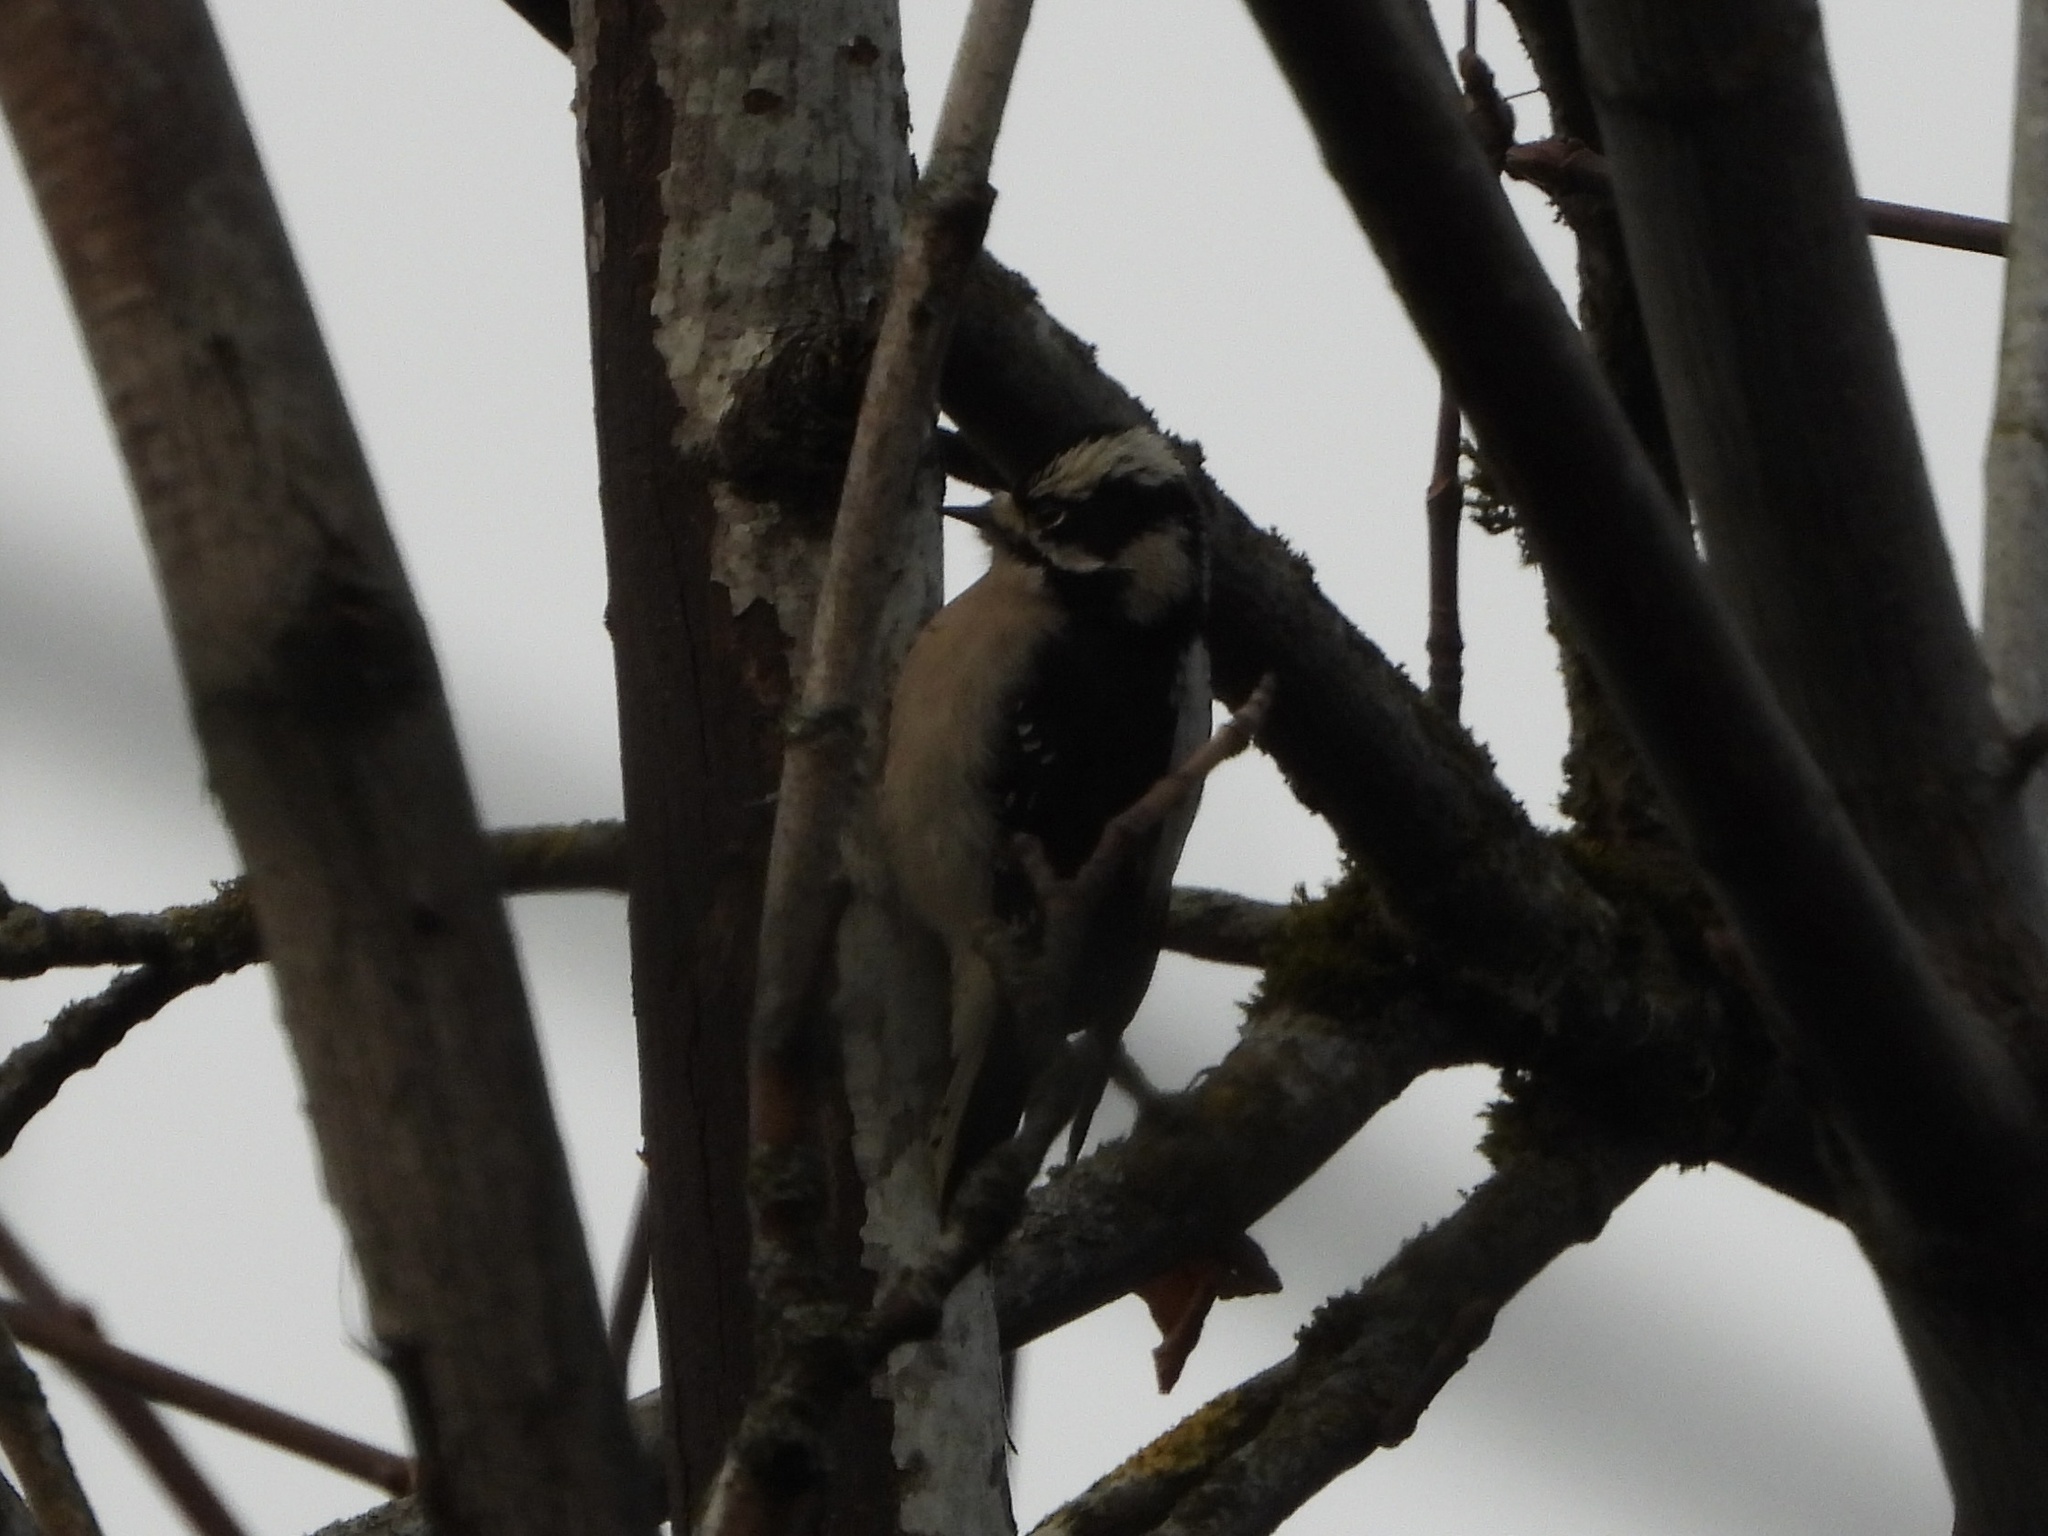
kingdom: Animalia
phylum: Chordata
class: Aves
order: Piciformes
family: Picidae
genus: Dryobates
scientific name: Dryobates pubescens
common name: Downy woodpecker
